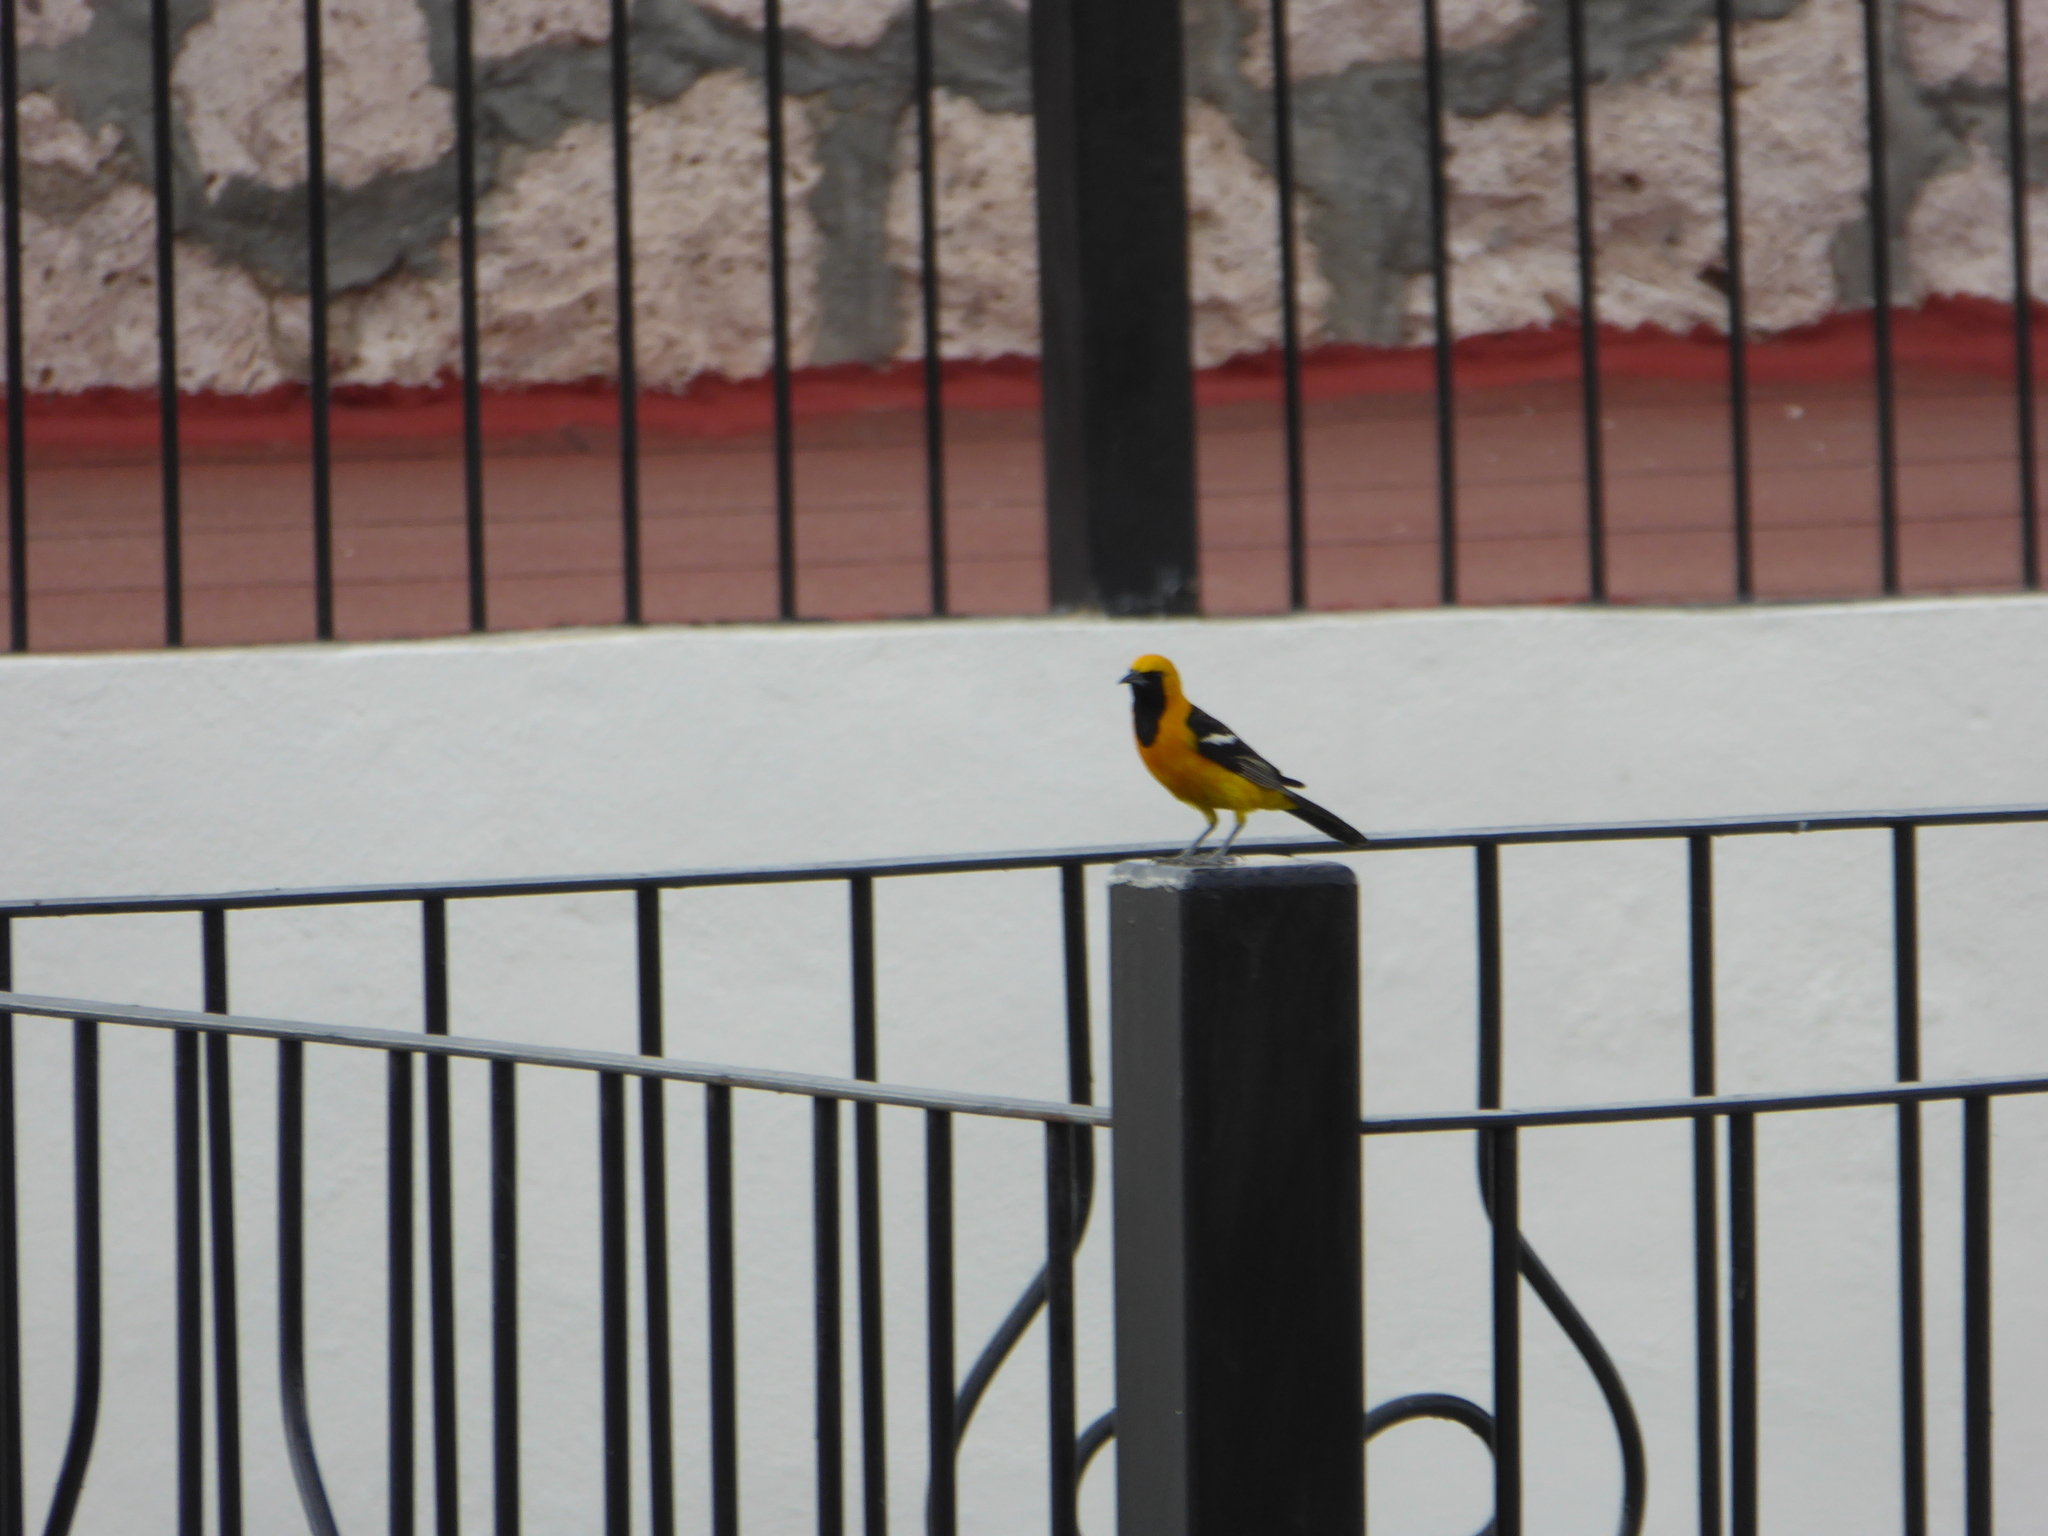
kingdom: Animalia
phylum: Chordata
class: Aves
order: Passeriformes
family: Icteridae
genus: Icterus
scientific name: Icterus cucullatus
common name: Hooded oriole
